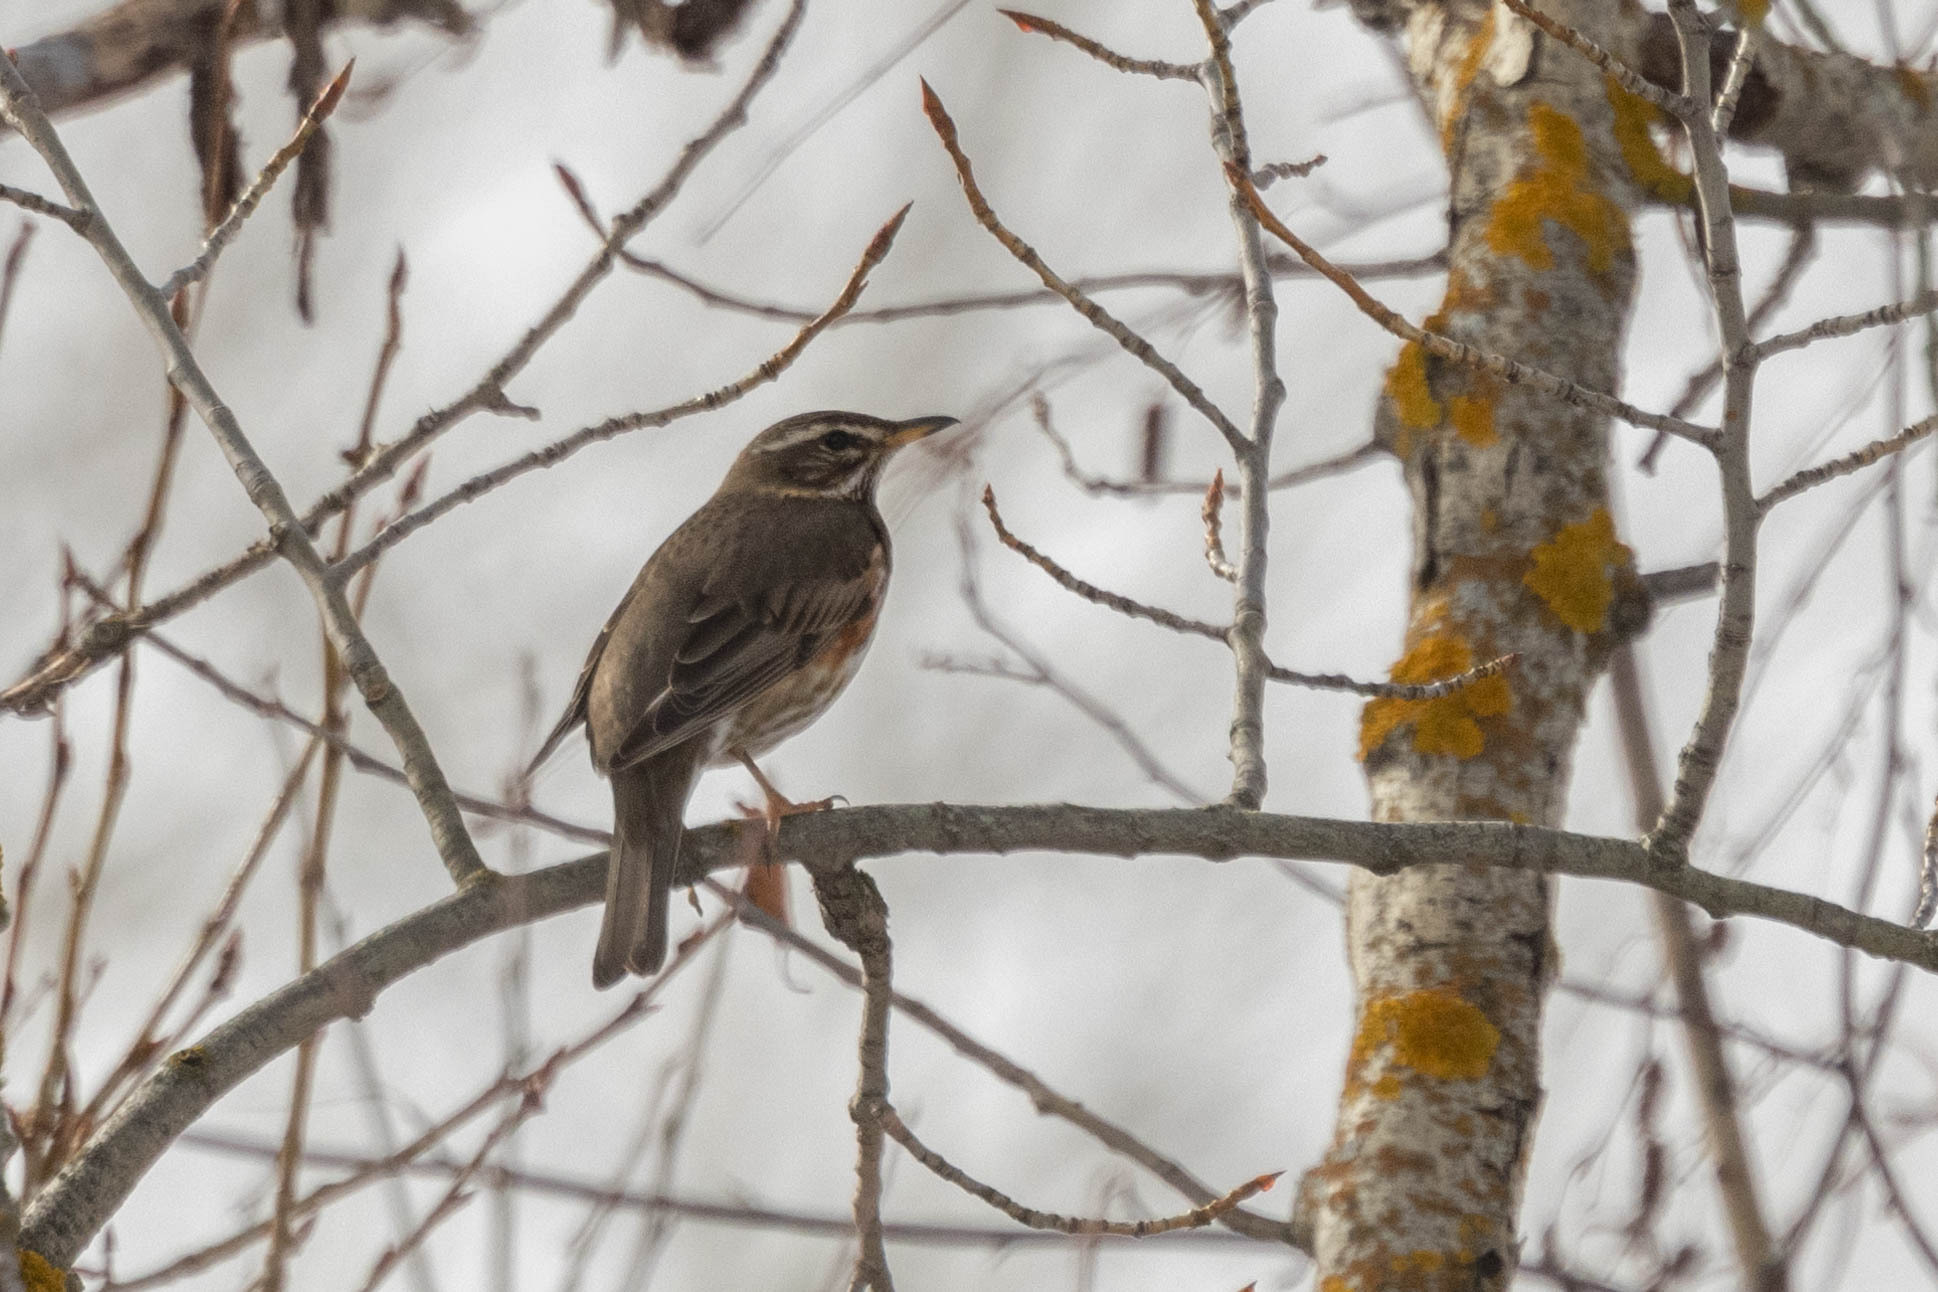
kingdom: Animalia
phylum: Chordata
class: Aves
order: Passeriformes
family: Turdidae
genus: Turdus
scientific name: Turdus iliacus
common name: Redwing
